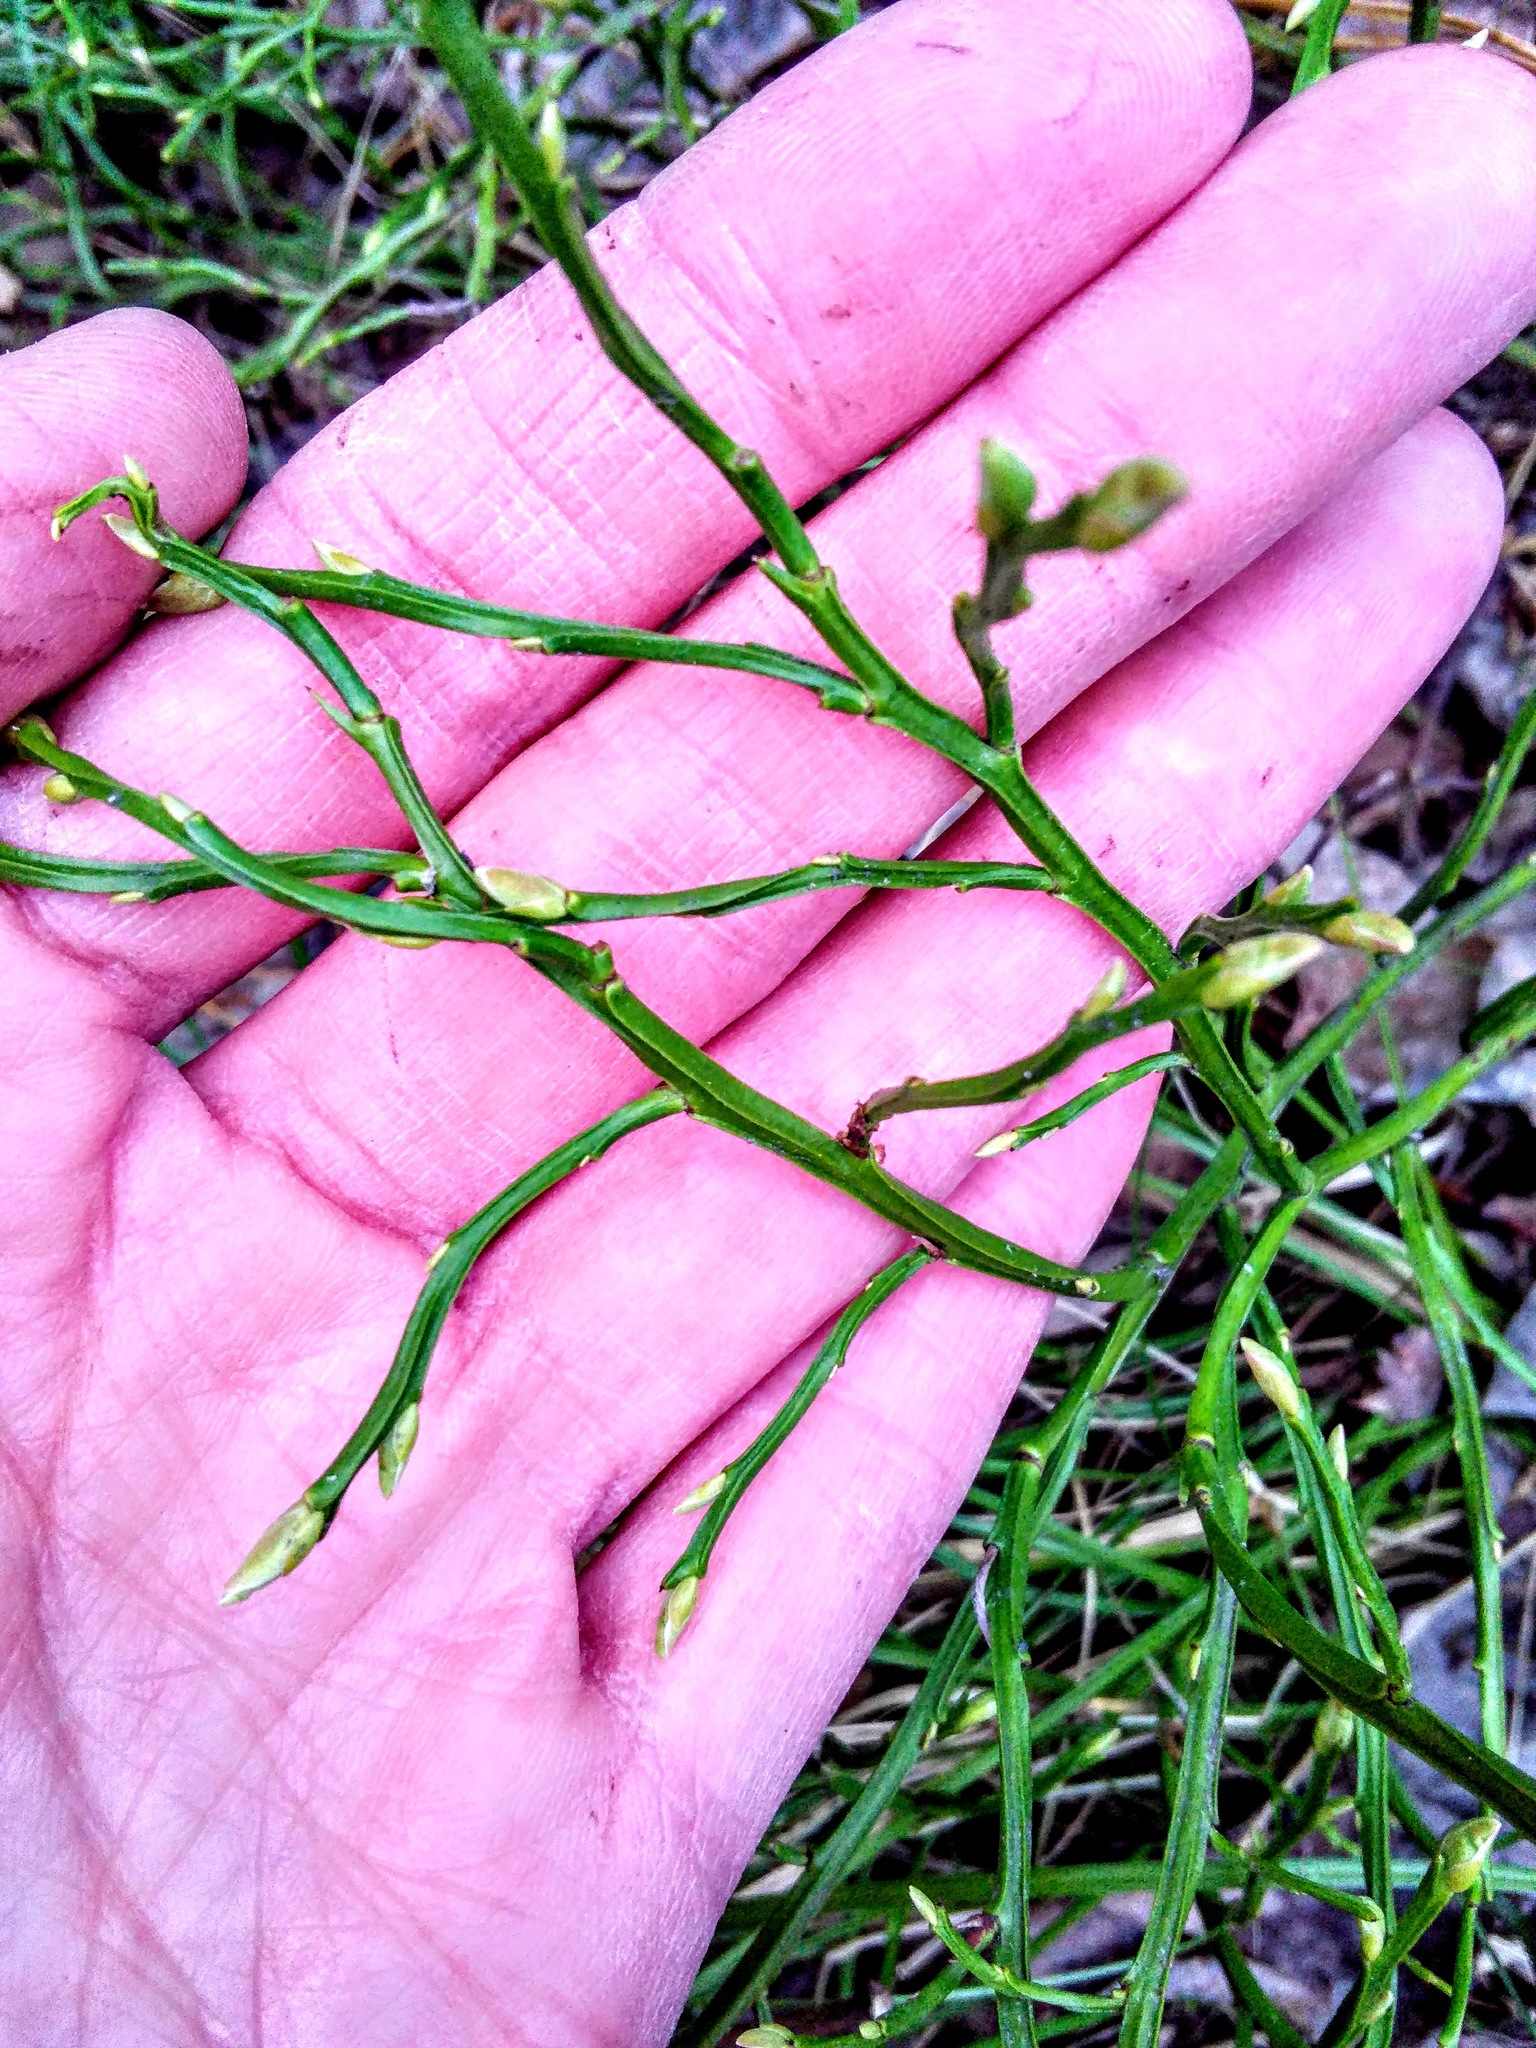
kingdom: Plantae
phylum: Tracheophyta
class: Magnoliopsida
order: Ericales
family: Ericaceae
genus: Vaccinium
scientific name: Vaccinium myrtillus
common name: Bilberry
